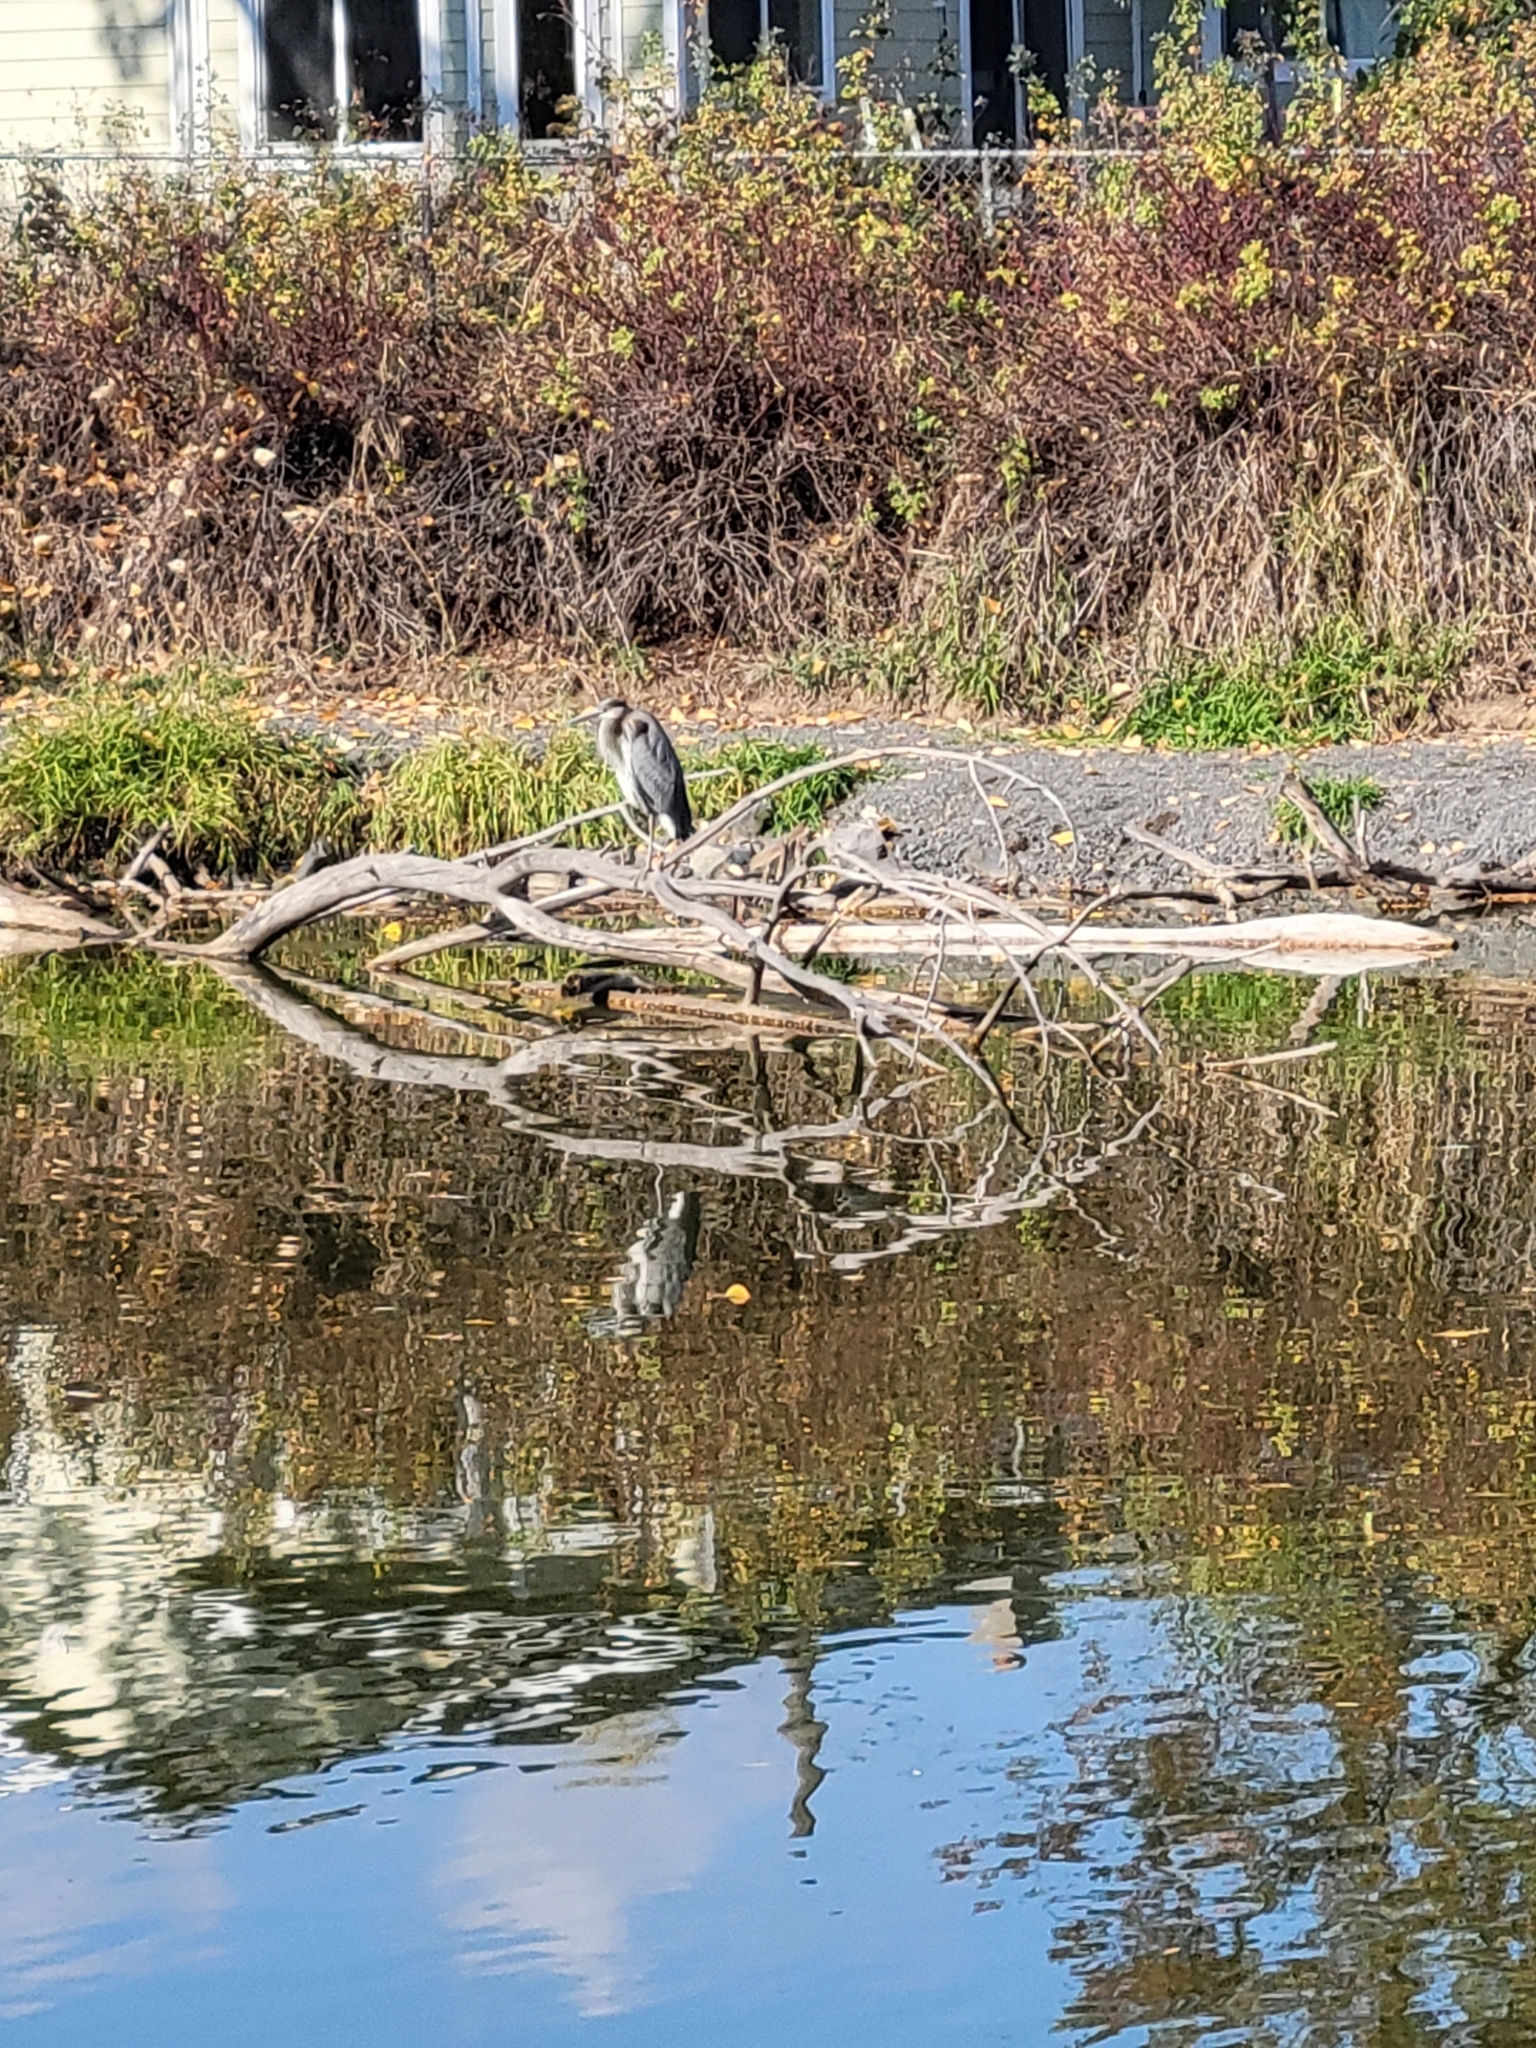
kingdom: Animalia
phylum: Chordata
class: Aves
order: Pelecaniformes
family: Ardeidae
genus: Ardea
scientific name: Ardea herodias
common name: Great blue heron
